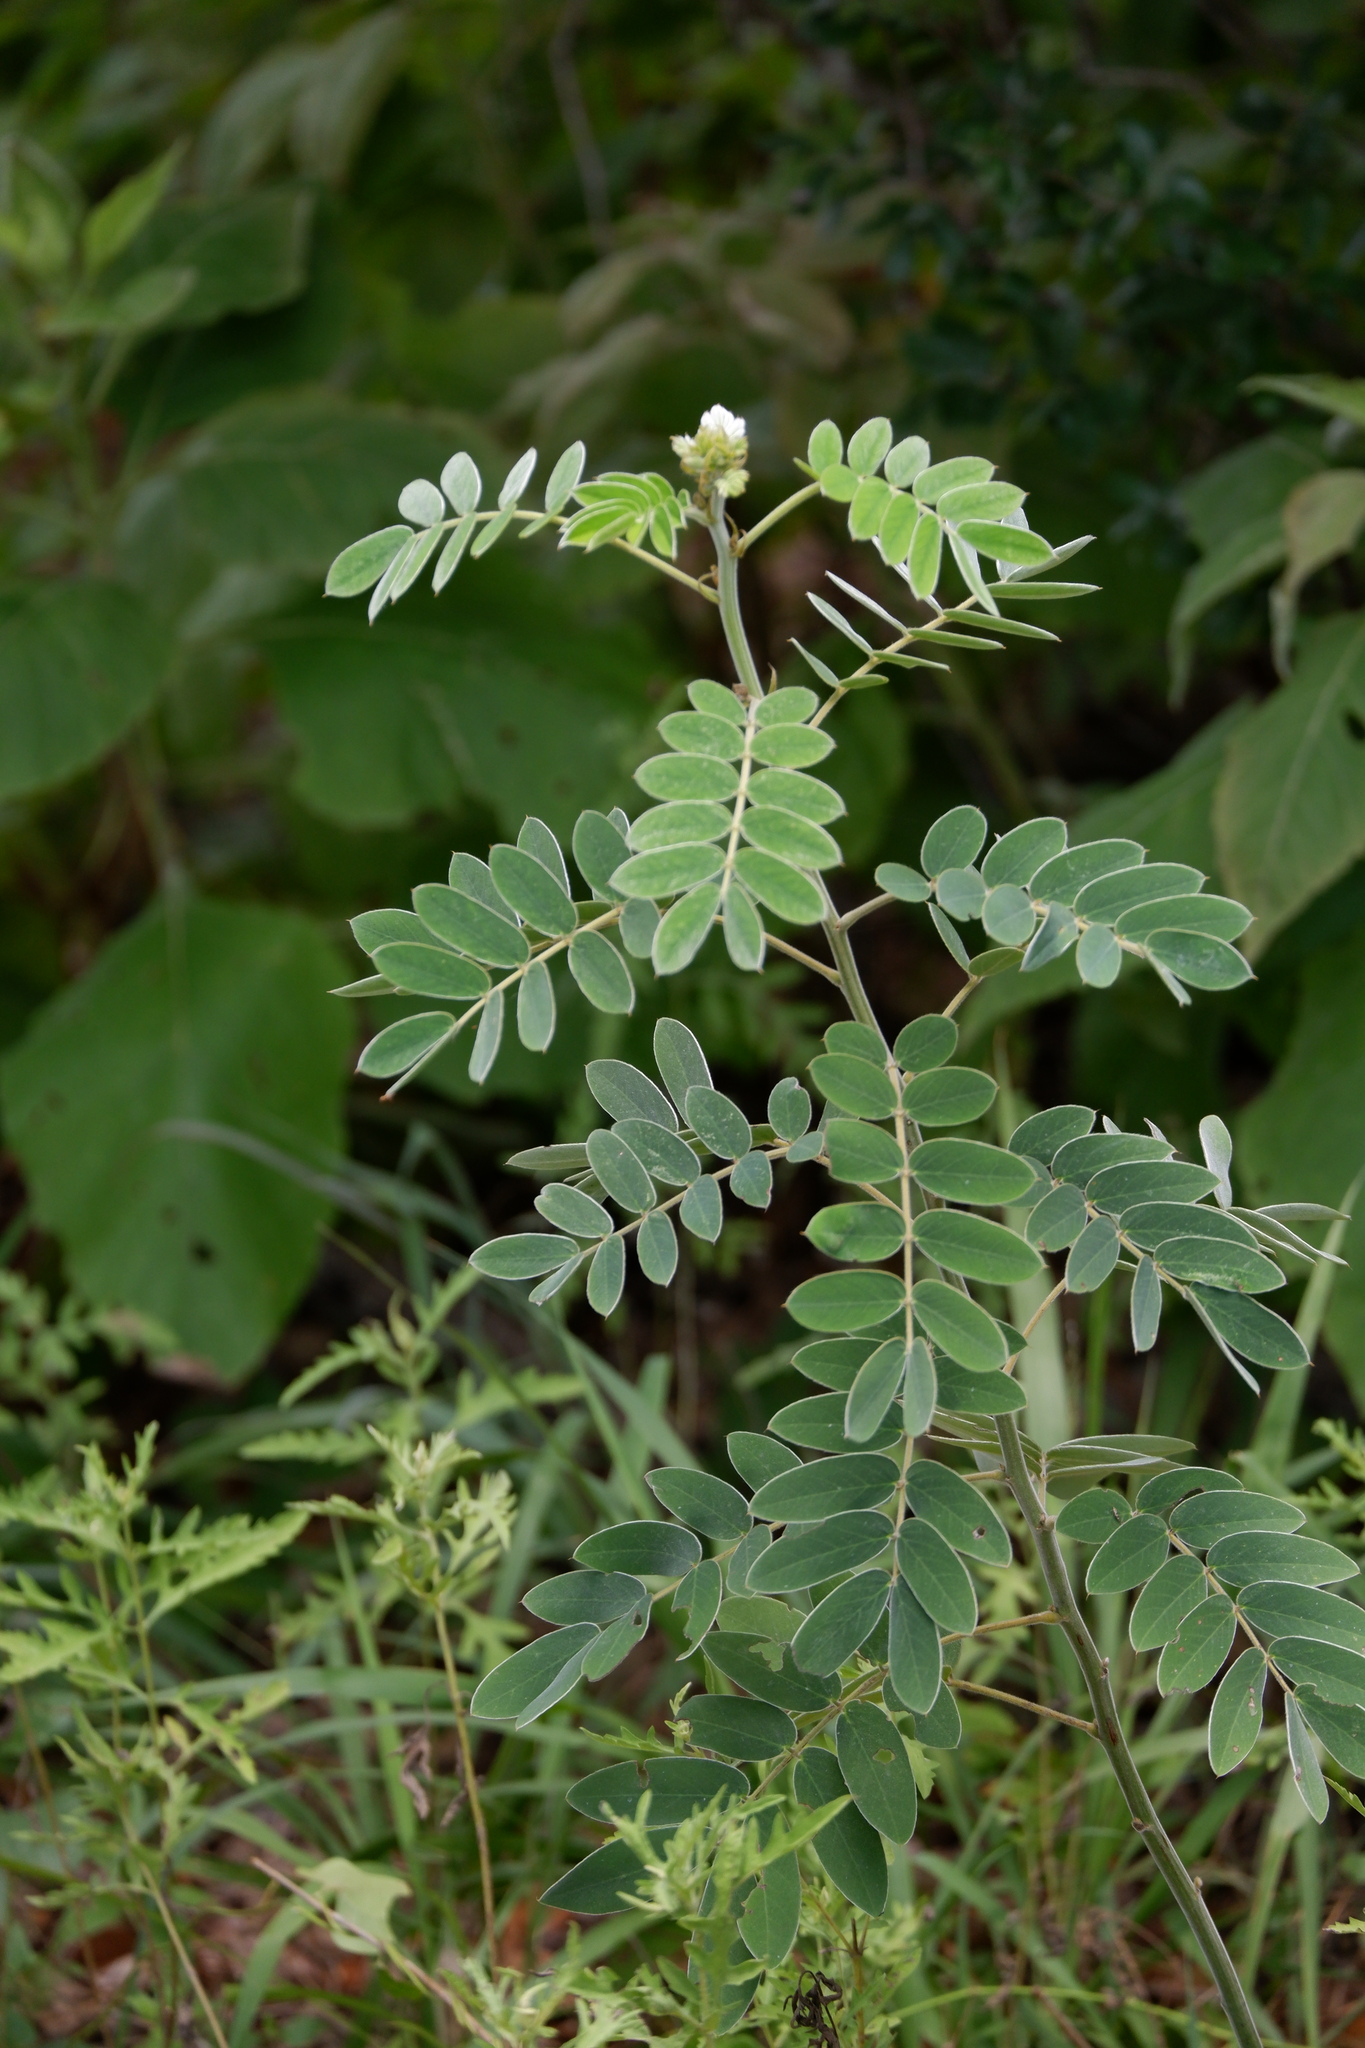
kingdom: Plantae
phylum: Tracheophyta
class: Magnoliopsida
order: Fabales
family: Fabaceae
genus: Senna
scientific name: Senna lindheimeriana
